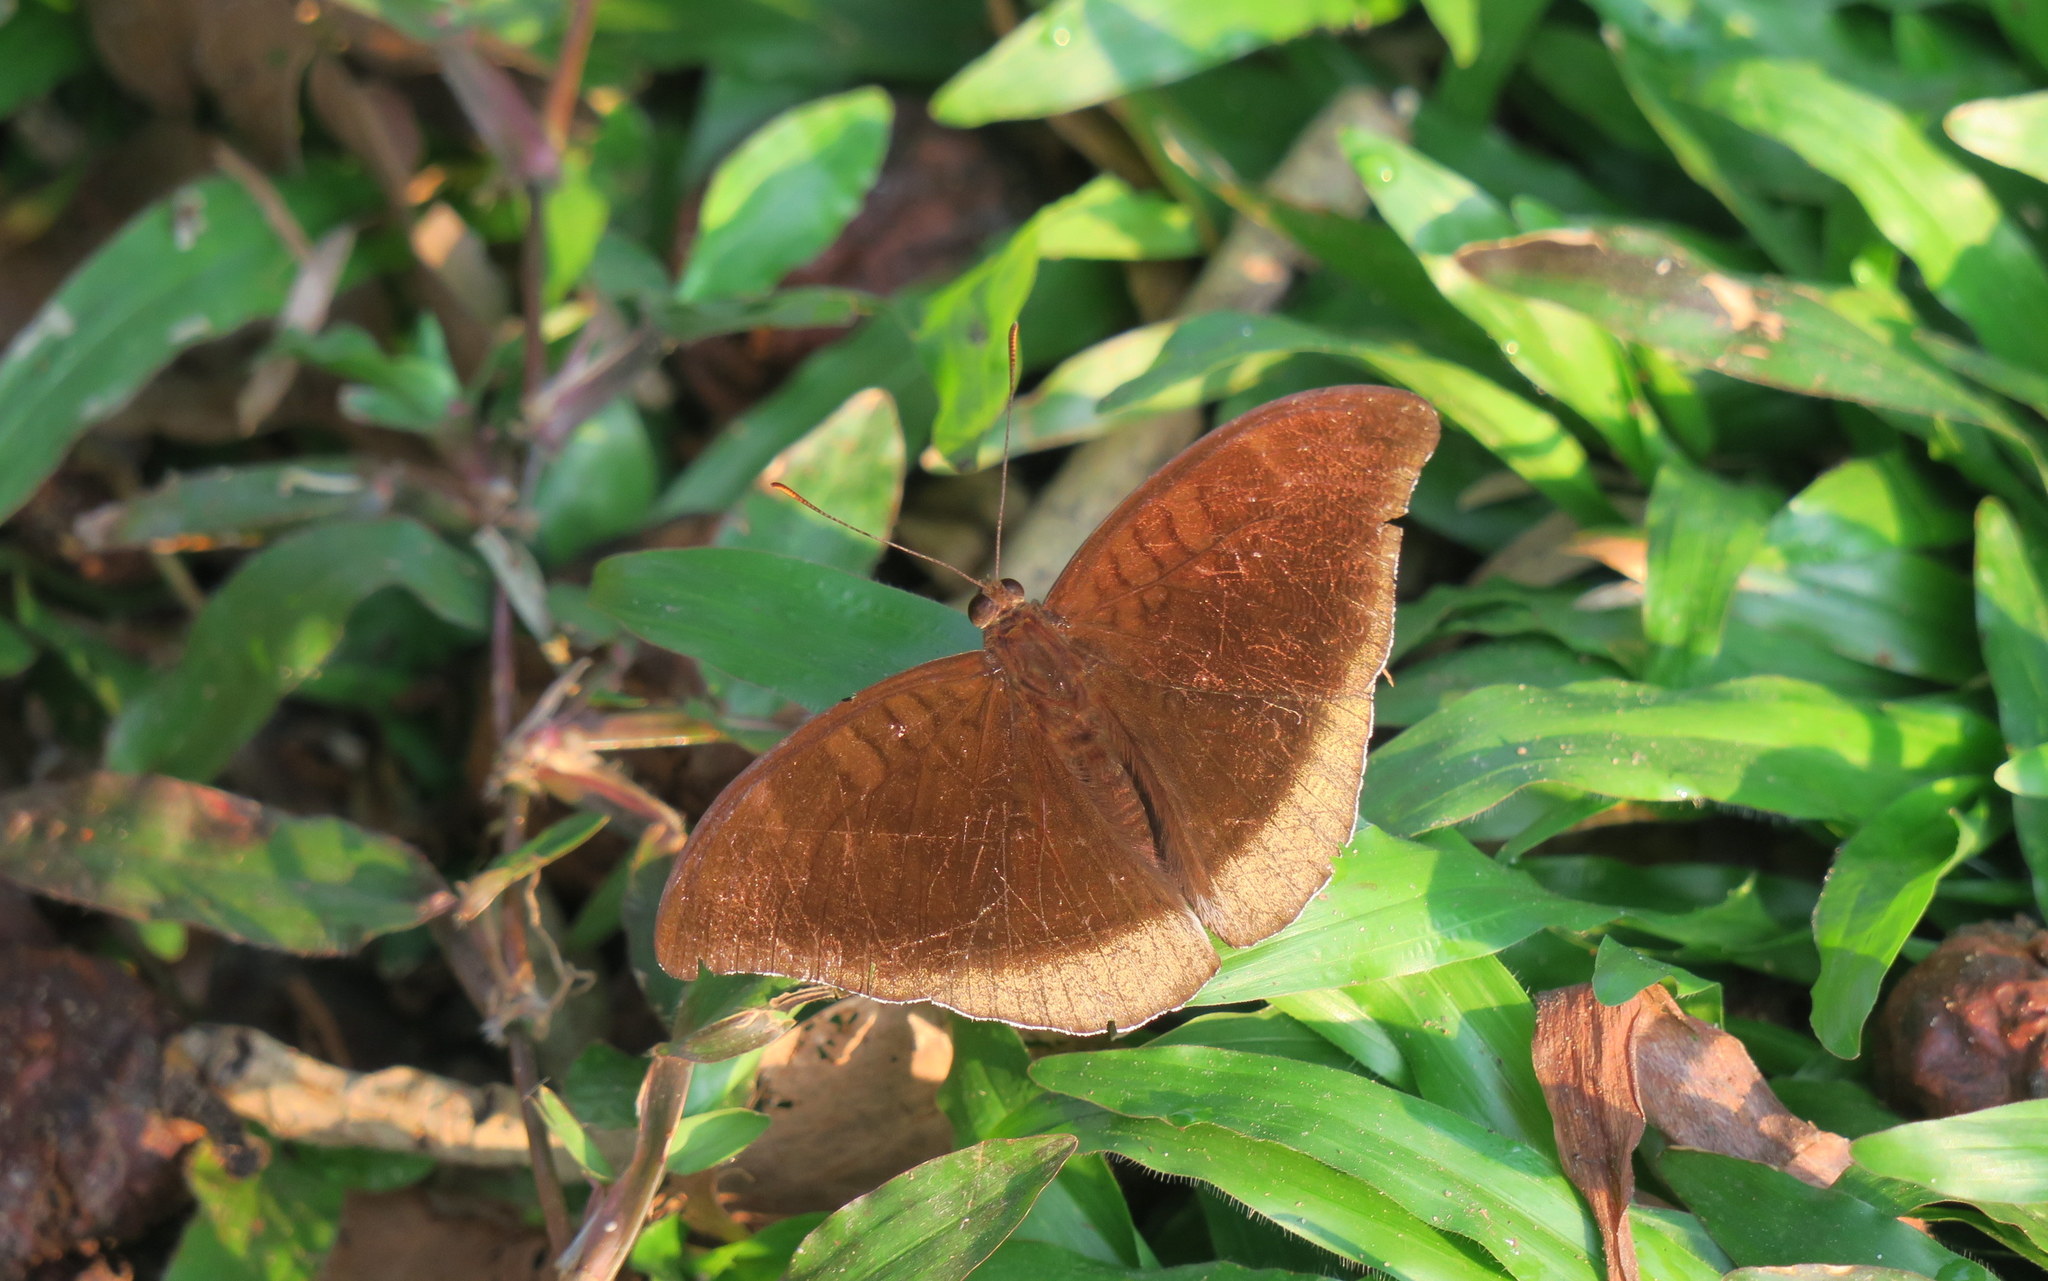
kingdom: Animalia
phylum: Arthropoda
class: Insecta
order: Lepidoptera
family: Nymphalidae
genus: Tanaecia
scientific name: Tanaecia lepidea
